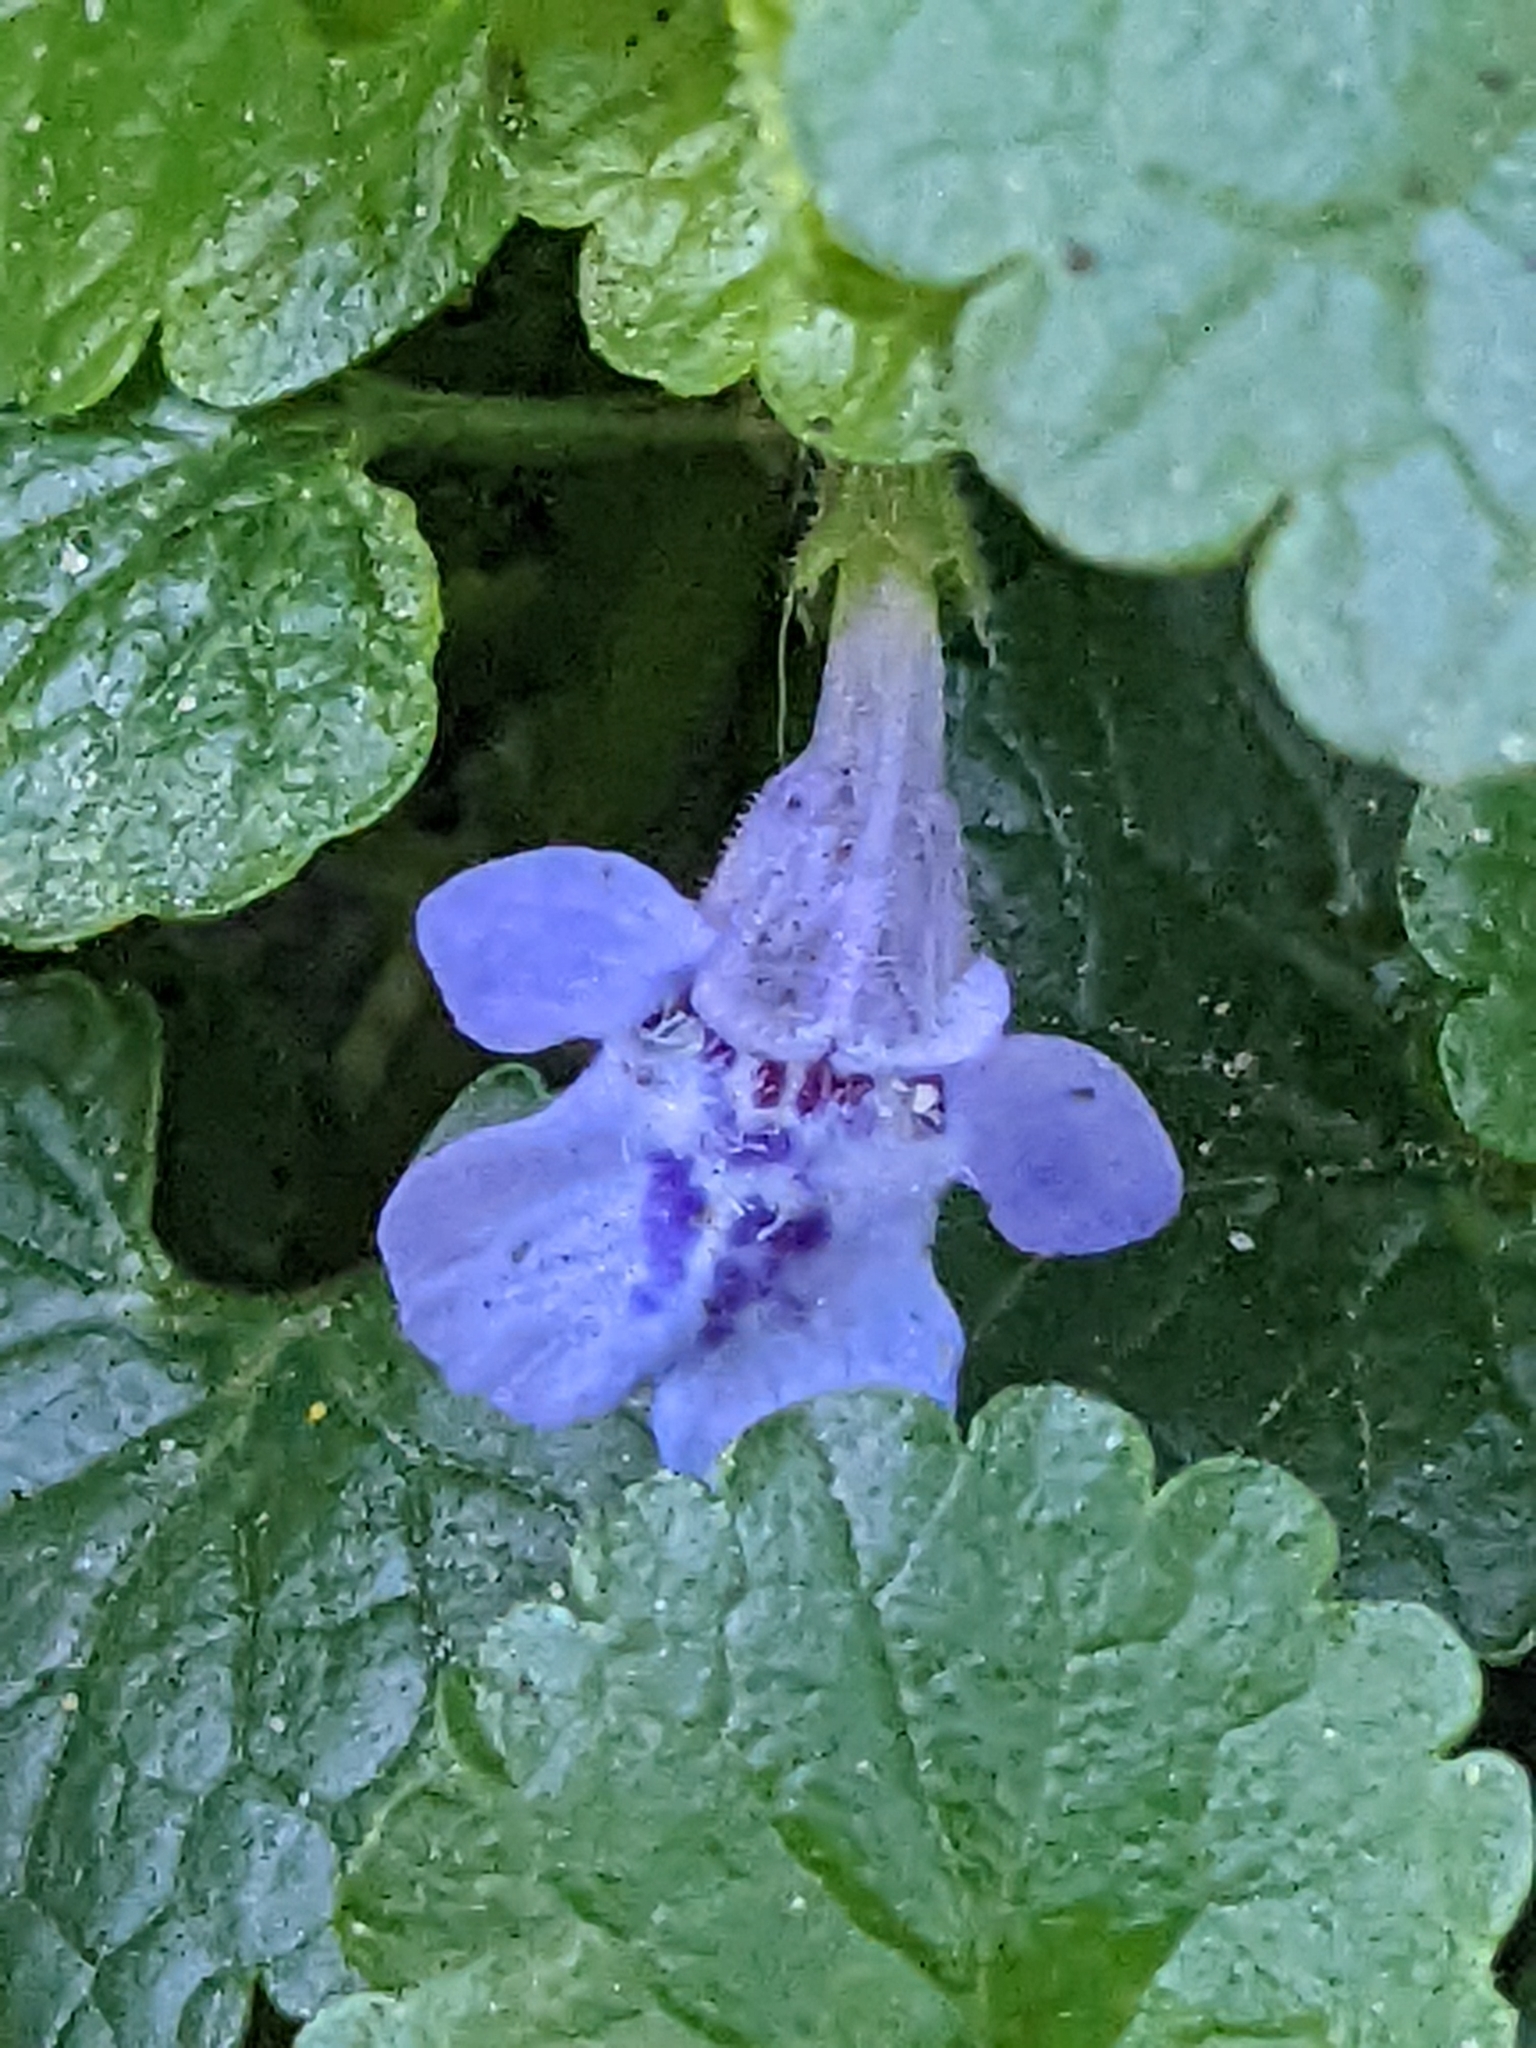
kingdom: Plantae
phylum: Tracheophyta
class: Magnoliopsida
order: Lamiales
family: Lamiaceae
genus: Glechoma
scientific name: Glechoma hederacea
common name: Ground ivy
